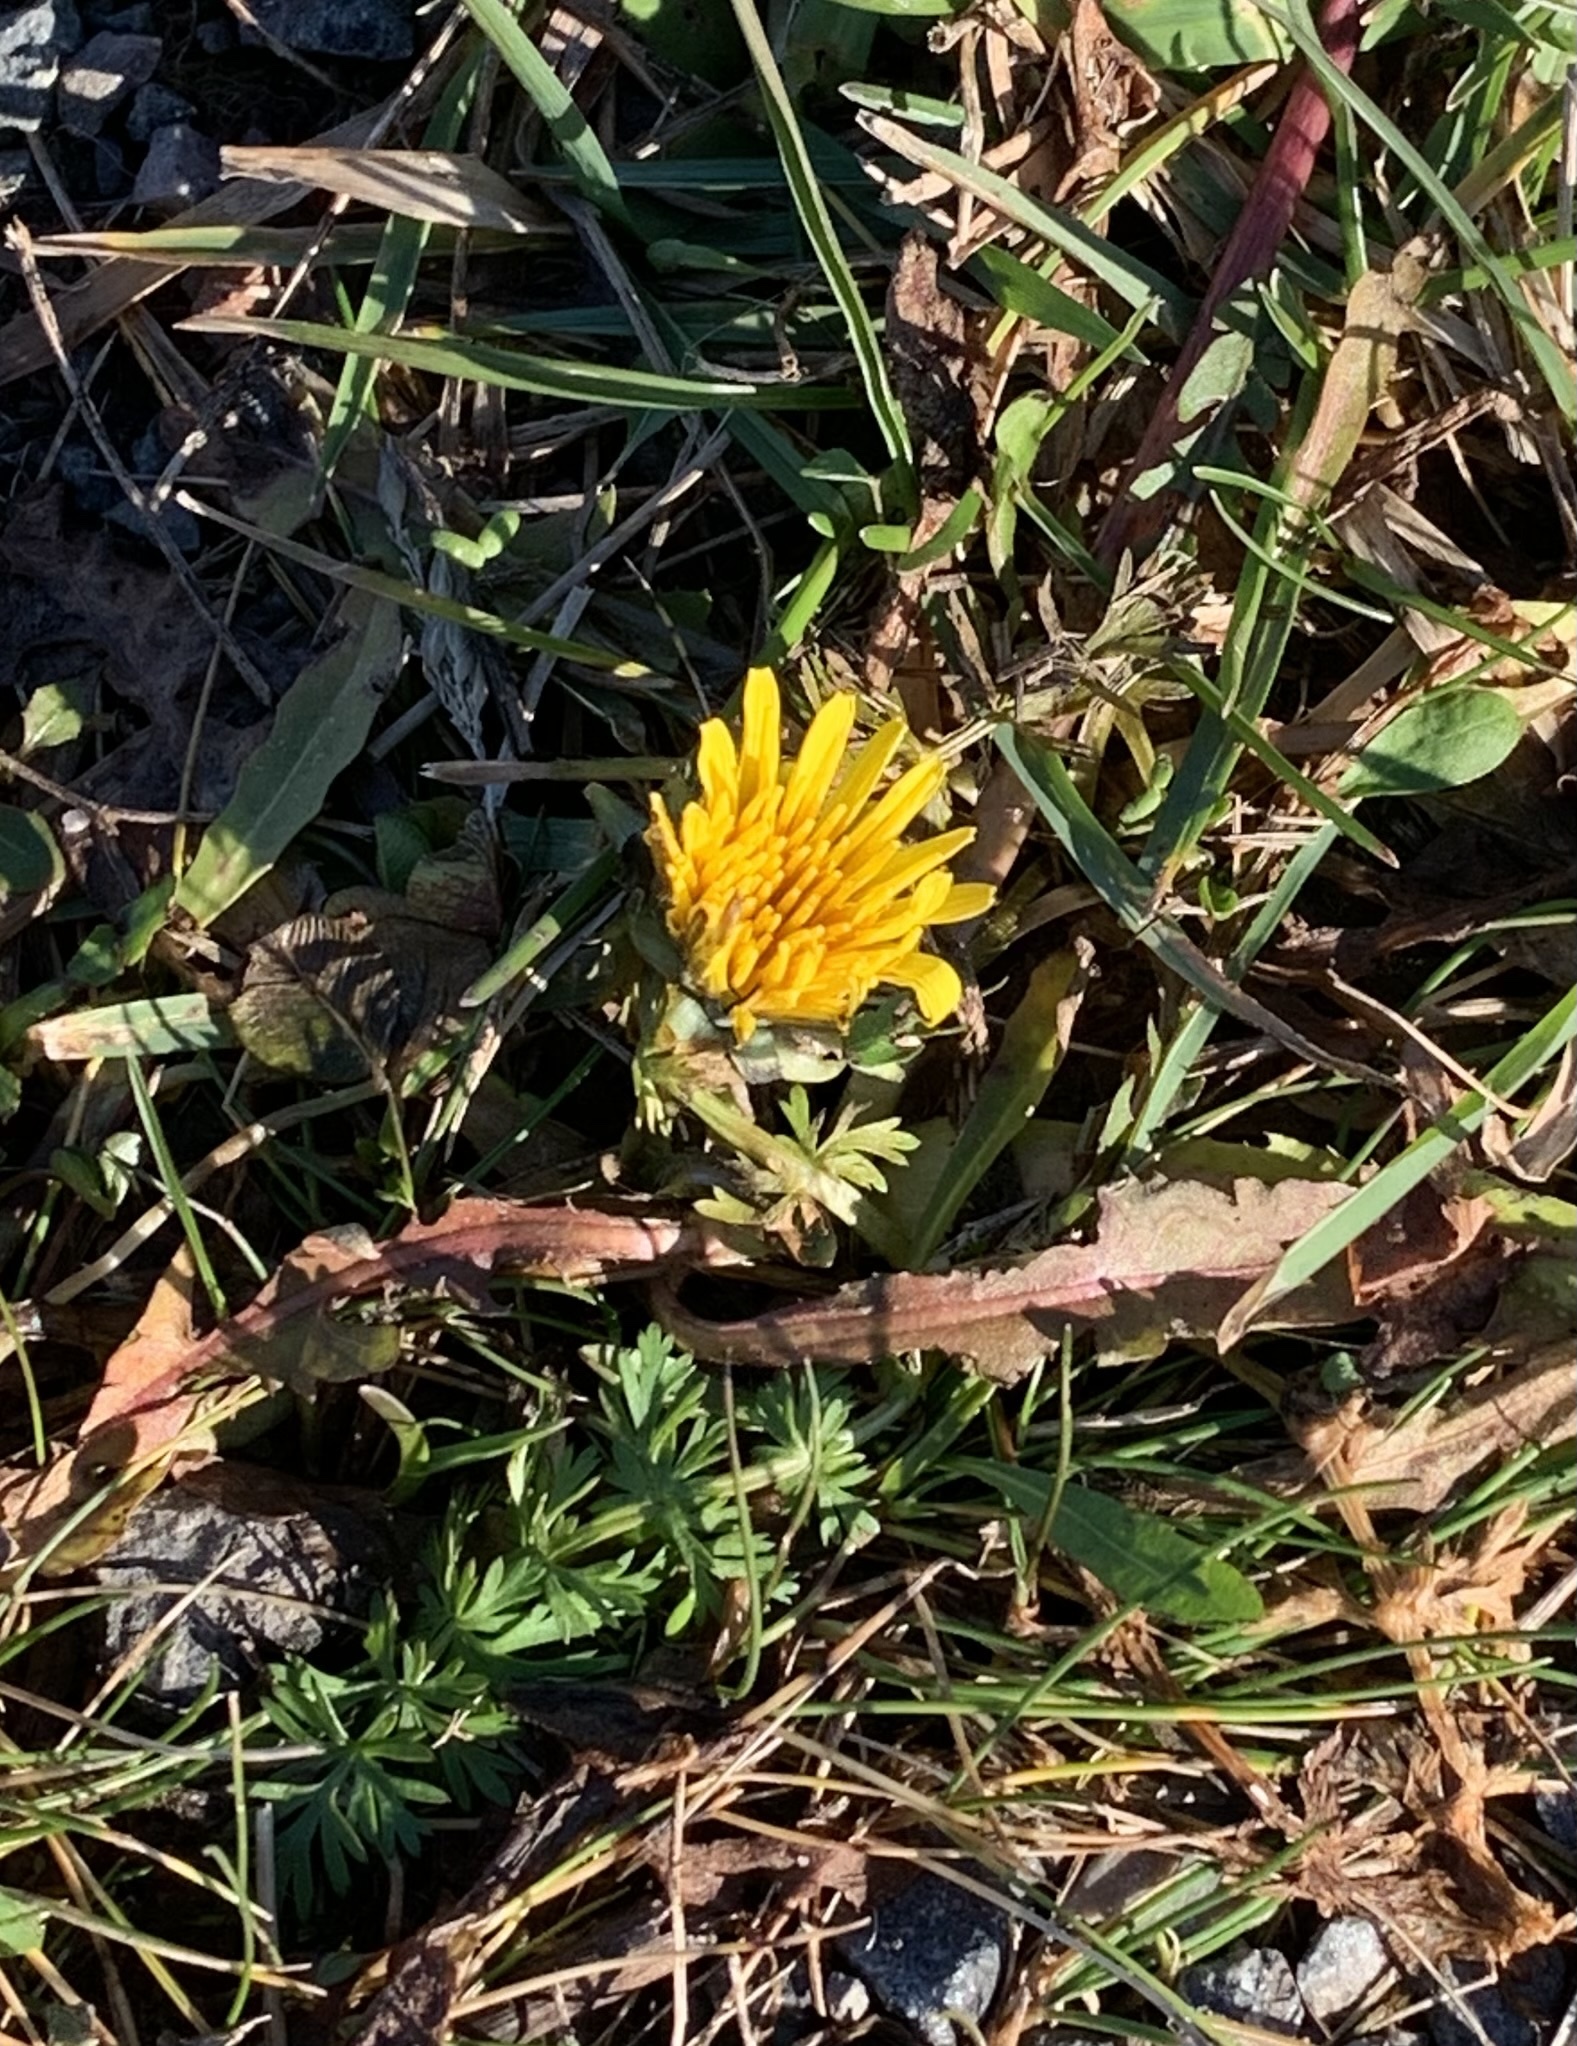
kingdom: Plantae
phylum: Tracheophyta
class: Magnoliopsida
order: Asterales
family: Asteraceae
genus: Taraxacum
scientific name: Taraxacum officinale
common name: Common dandelion
